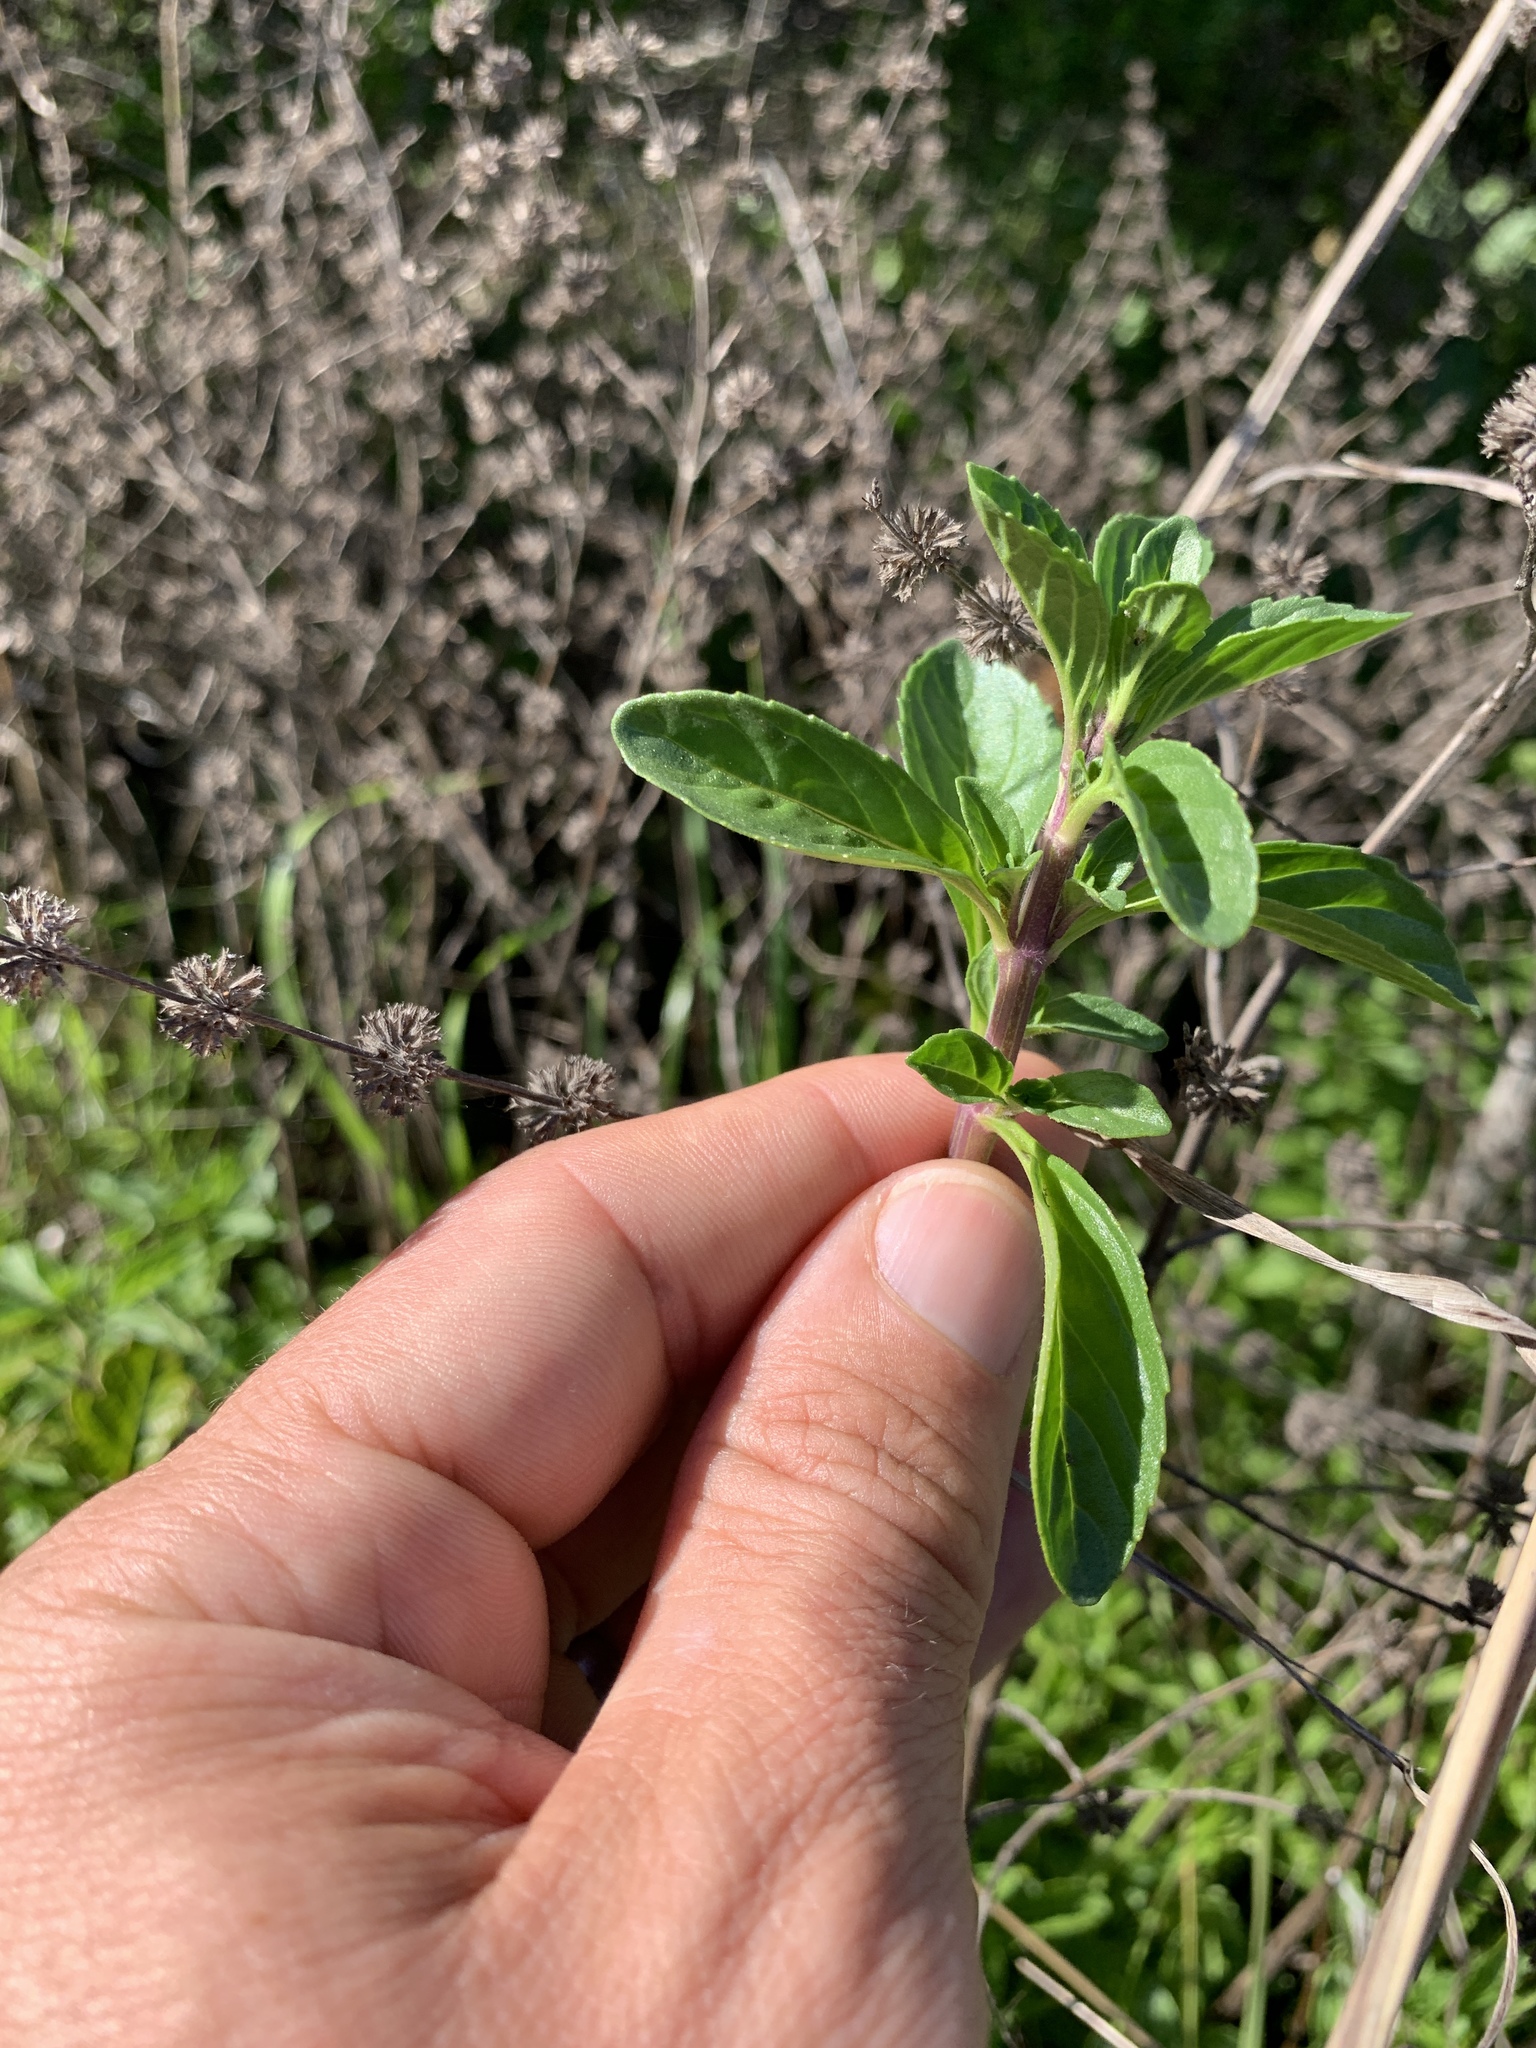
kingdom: Plantae
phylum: Tracheophyta
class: Magnoliopsida
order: Lamiales
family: Lamiaceae
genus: Mentha
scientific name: Mentha pulegium
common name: Pennyroyal
